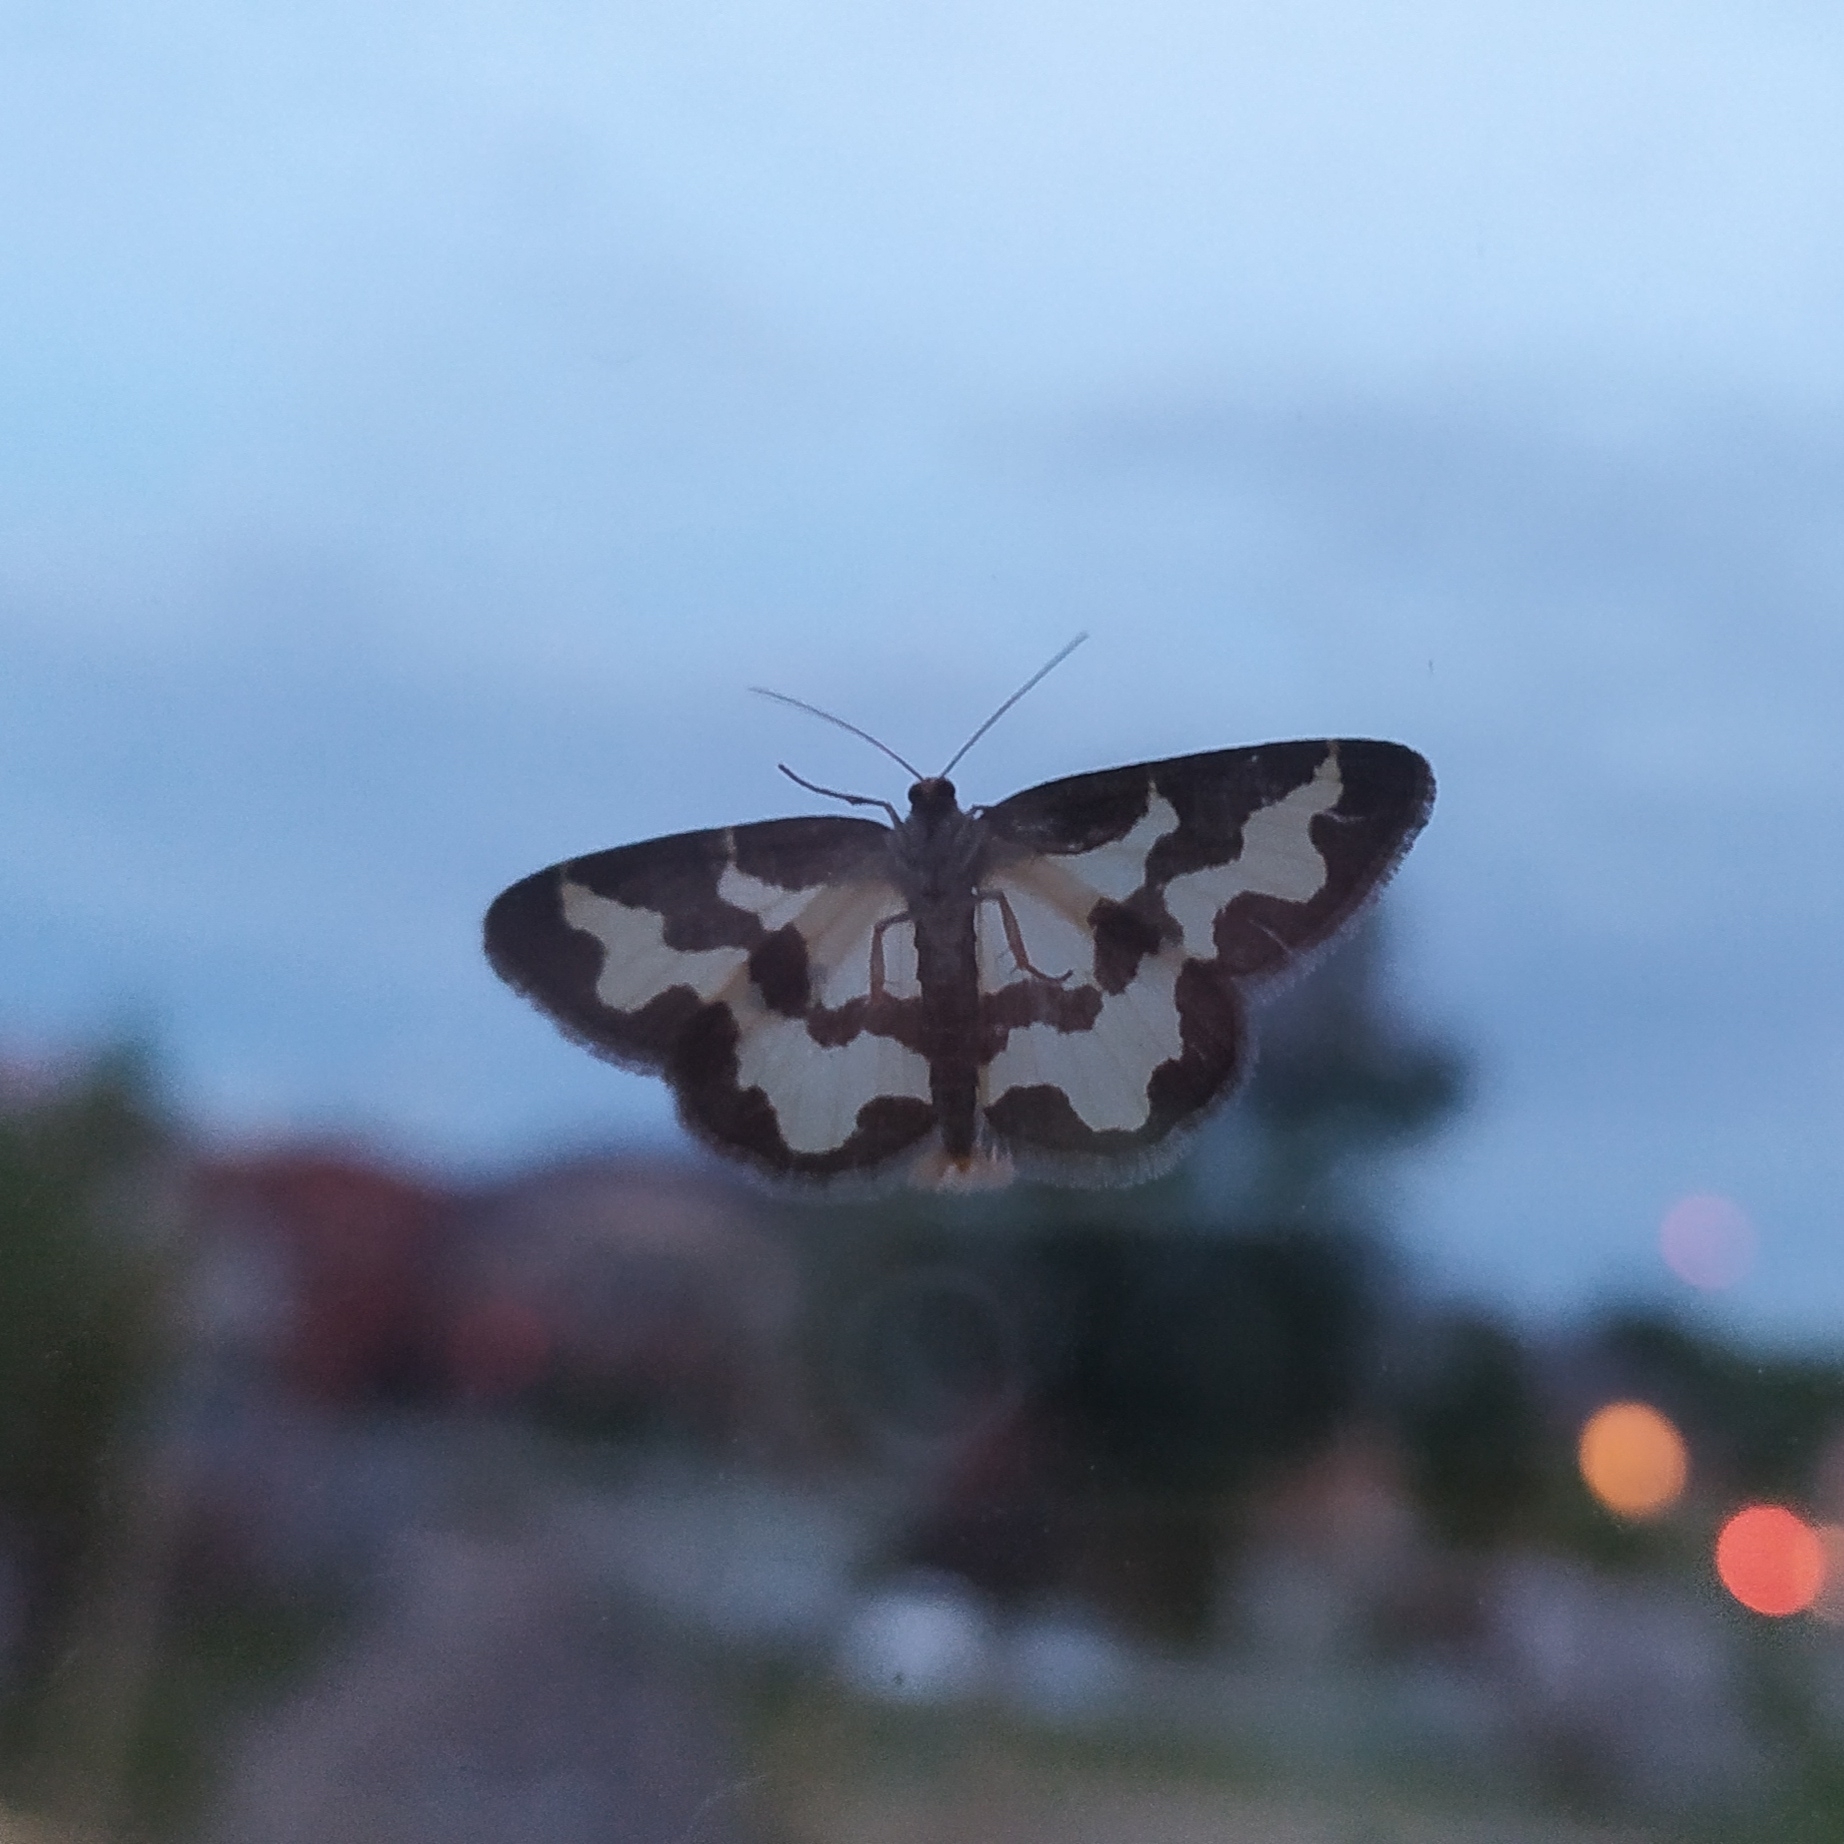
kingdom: Animalia
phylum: Arthropoda
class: Insecta
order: Lepidoptera
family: Geometridae
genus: Lomaspilis
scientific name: Lomaspilis marginata
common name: Clouded border
